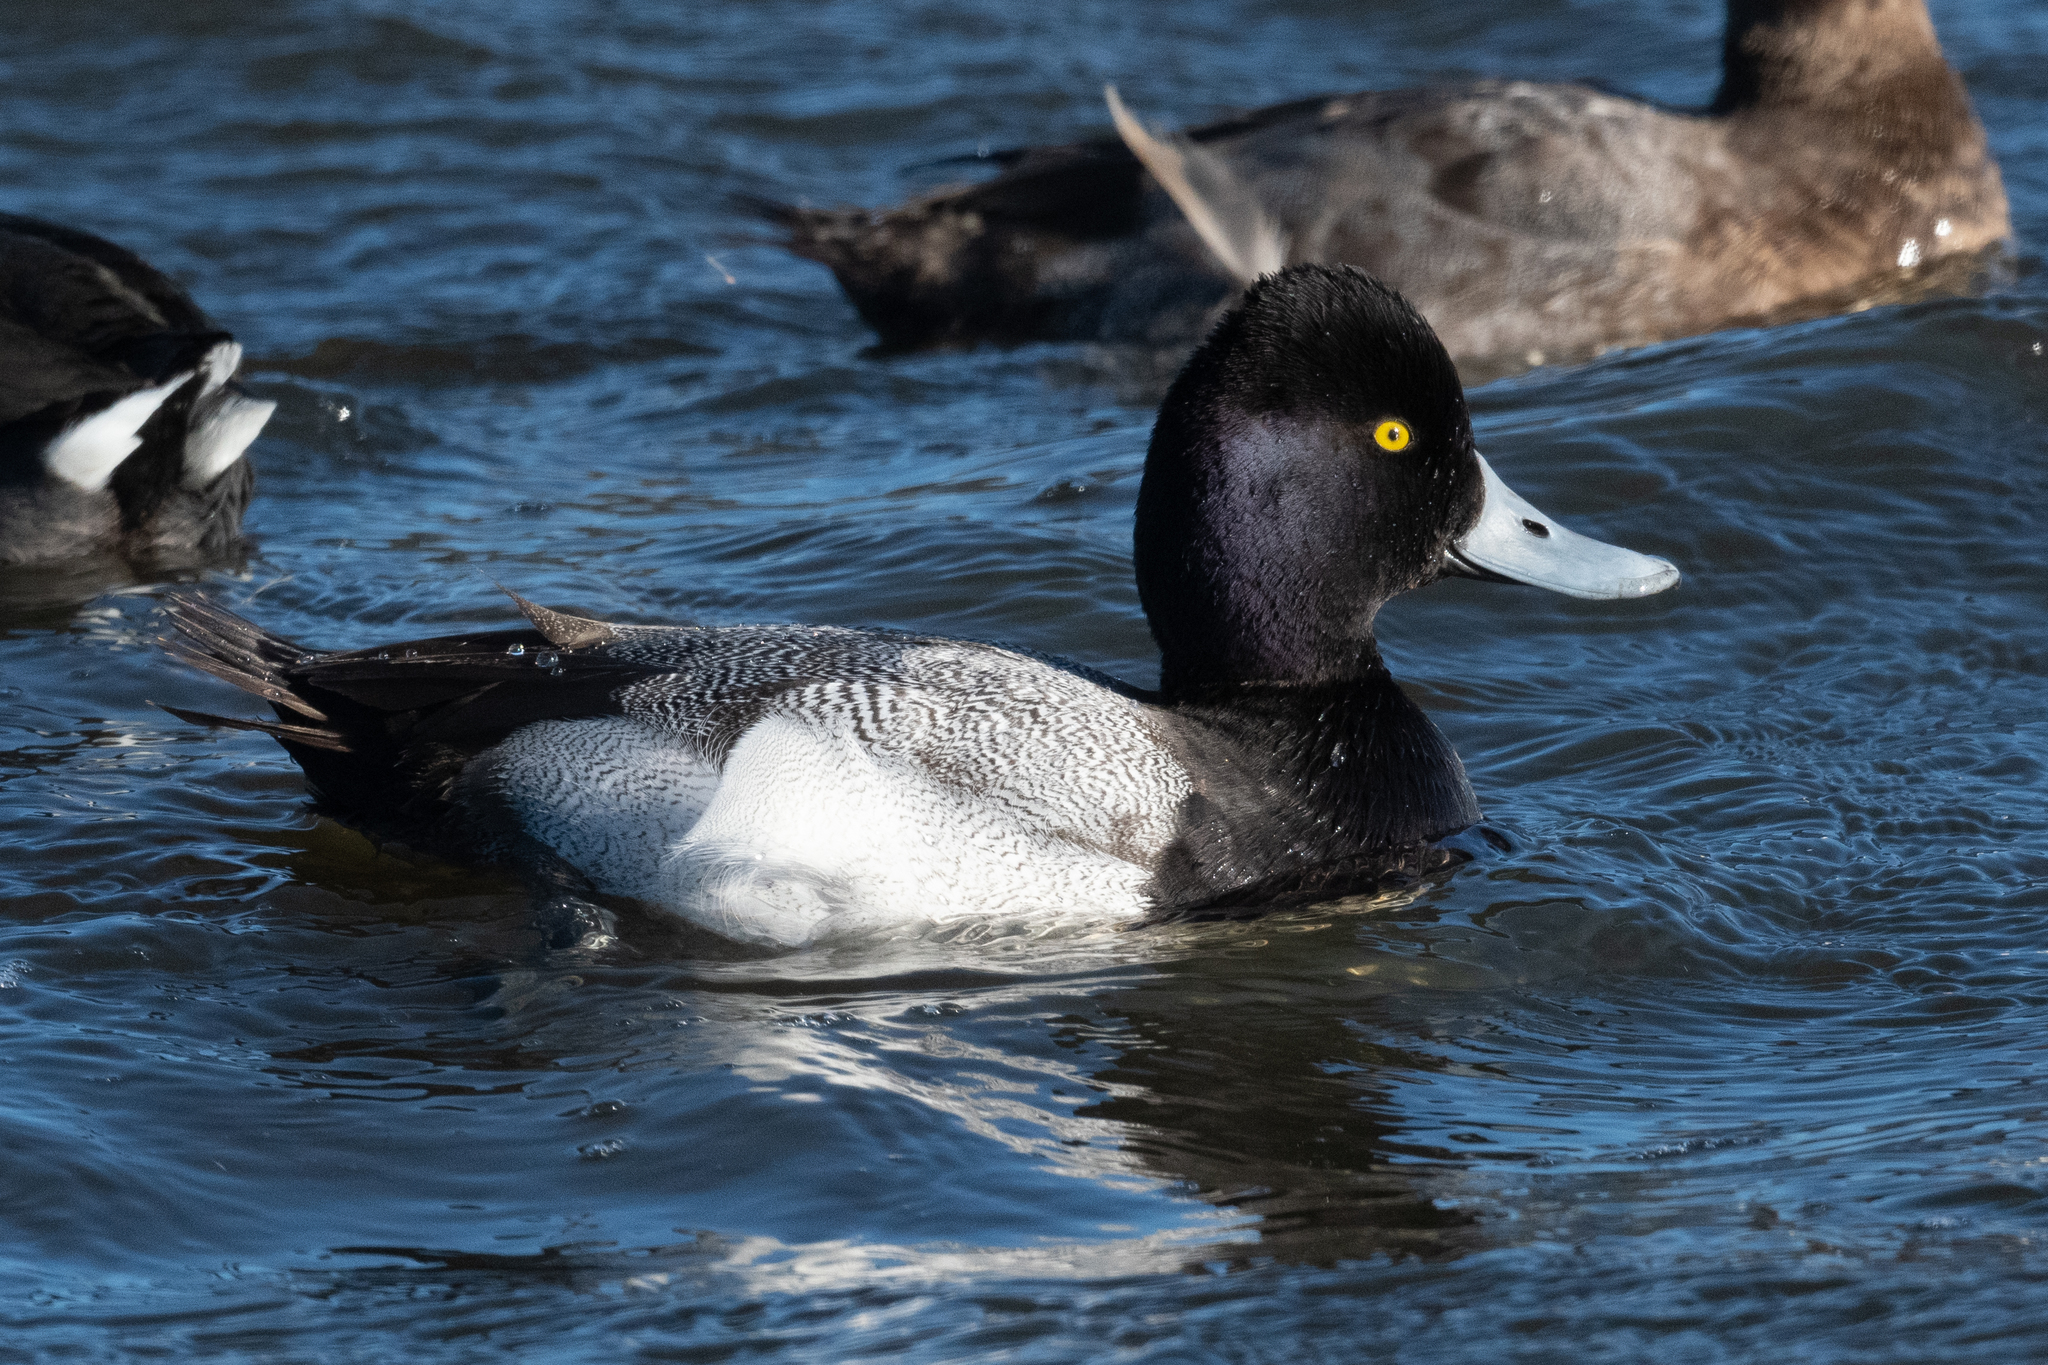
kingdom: Animalia
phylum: Chordata
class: Aves
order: Anseriformes
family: Anatidae
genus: Aythya
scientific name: Aythya affinis
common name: Lesser scaup
